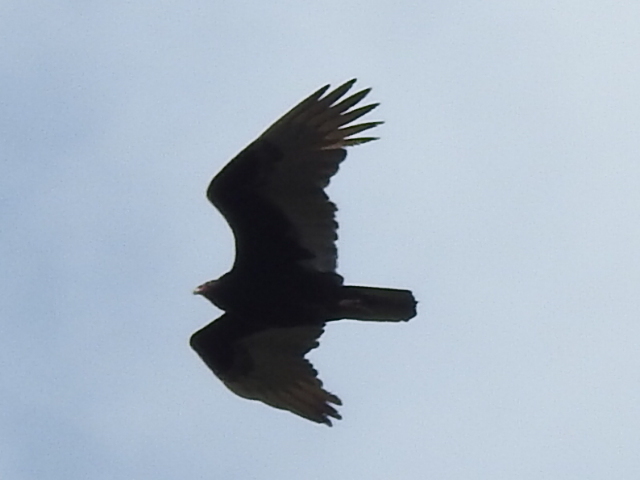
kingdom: Animalia
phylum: Chordata
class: Aves
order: Accipitriformes
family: Cathartidae
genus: Cathartes
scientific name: Cathartes aura
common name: Turkey vulture
